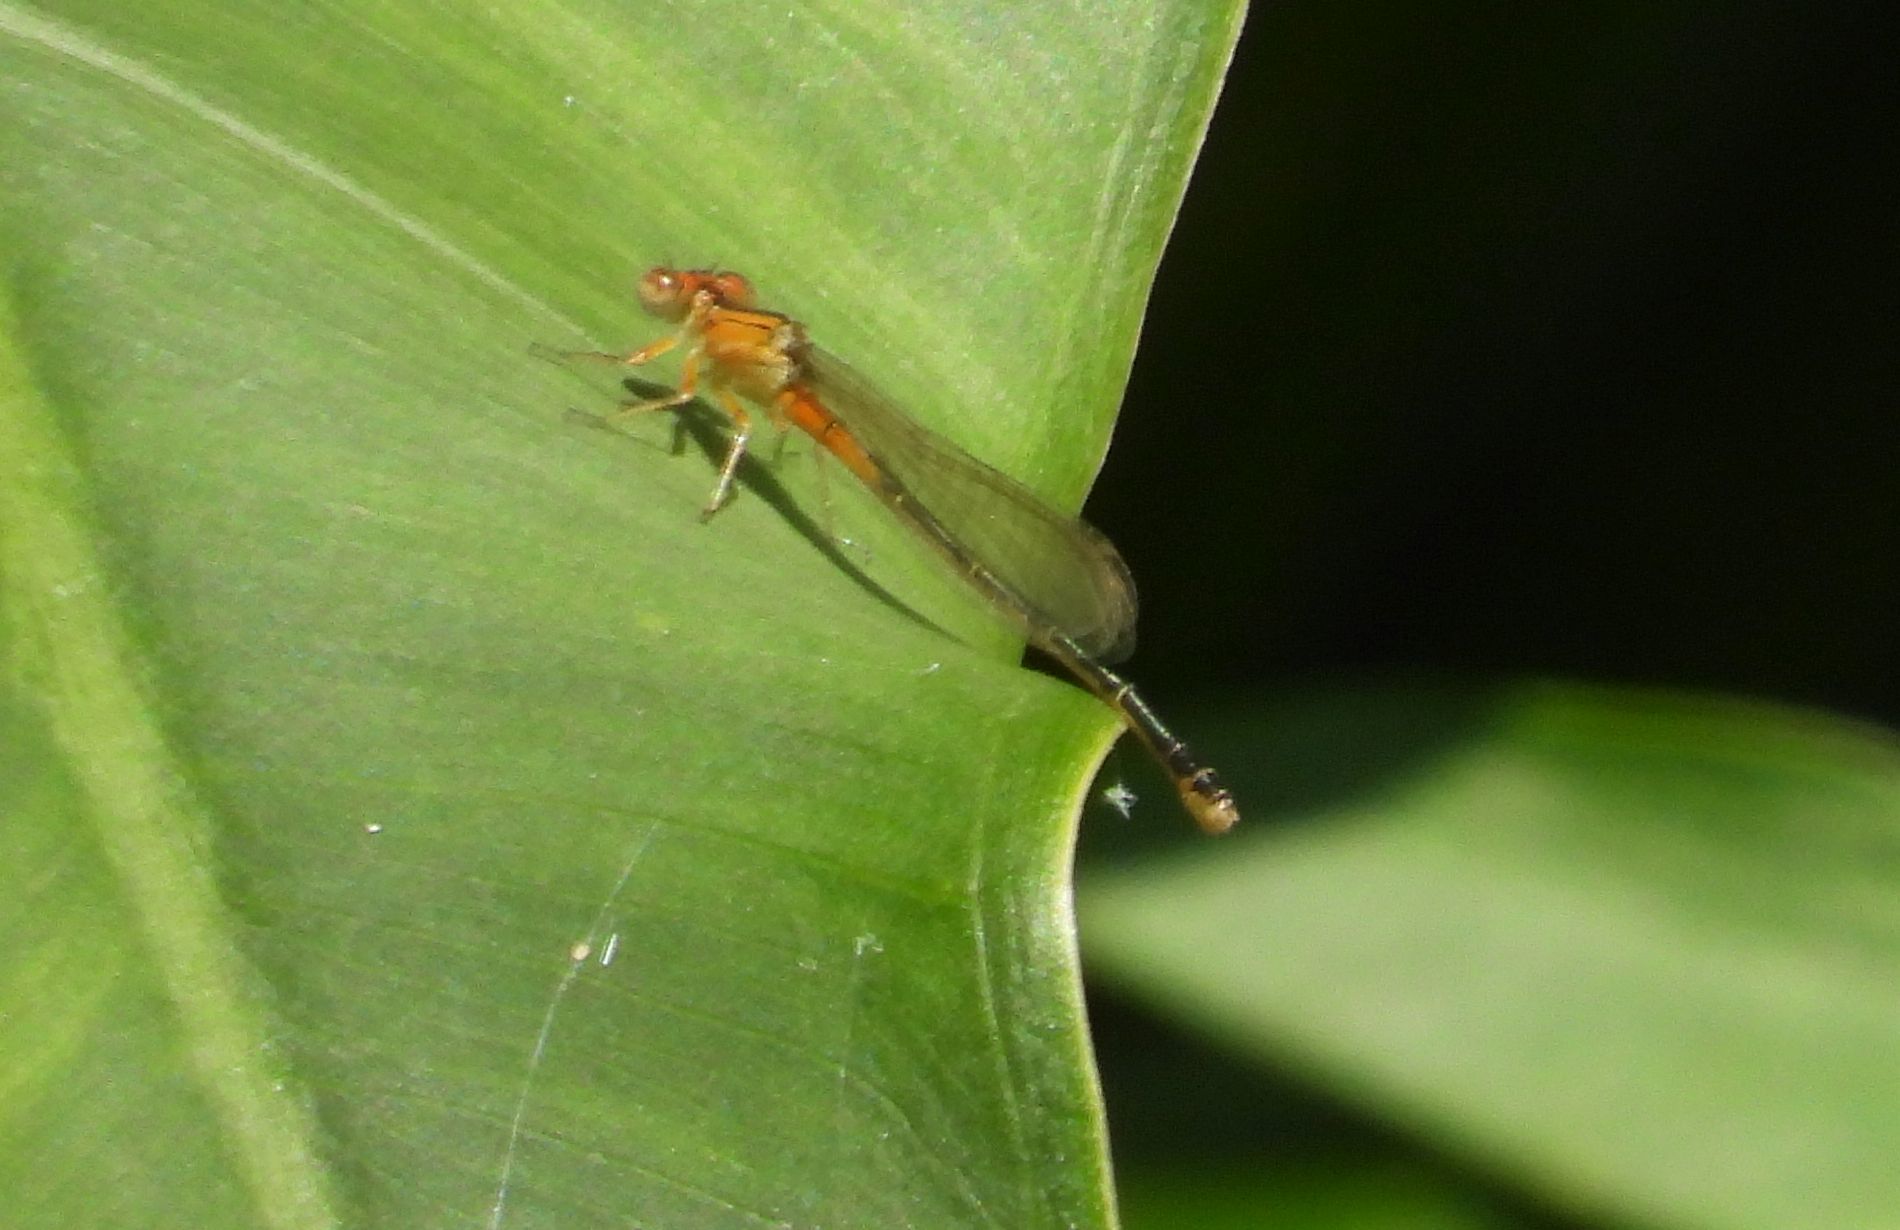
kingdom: Animalia
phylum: Arthropoda
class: Insecta
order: Odonata
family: Coenagrionidae
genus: Ischnura
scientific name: Ischnura verticalis
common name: Eastern forktail
